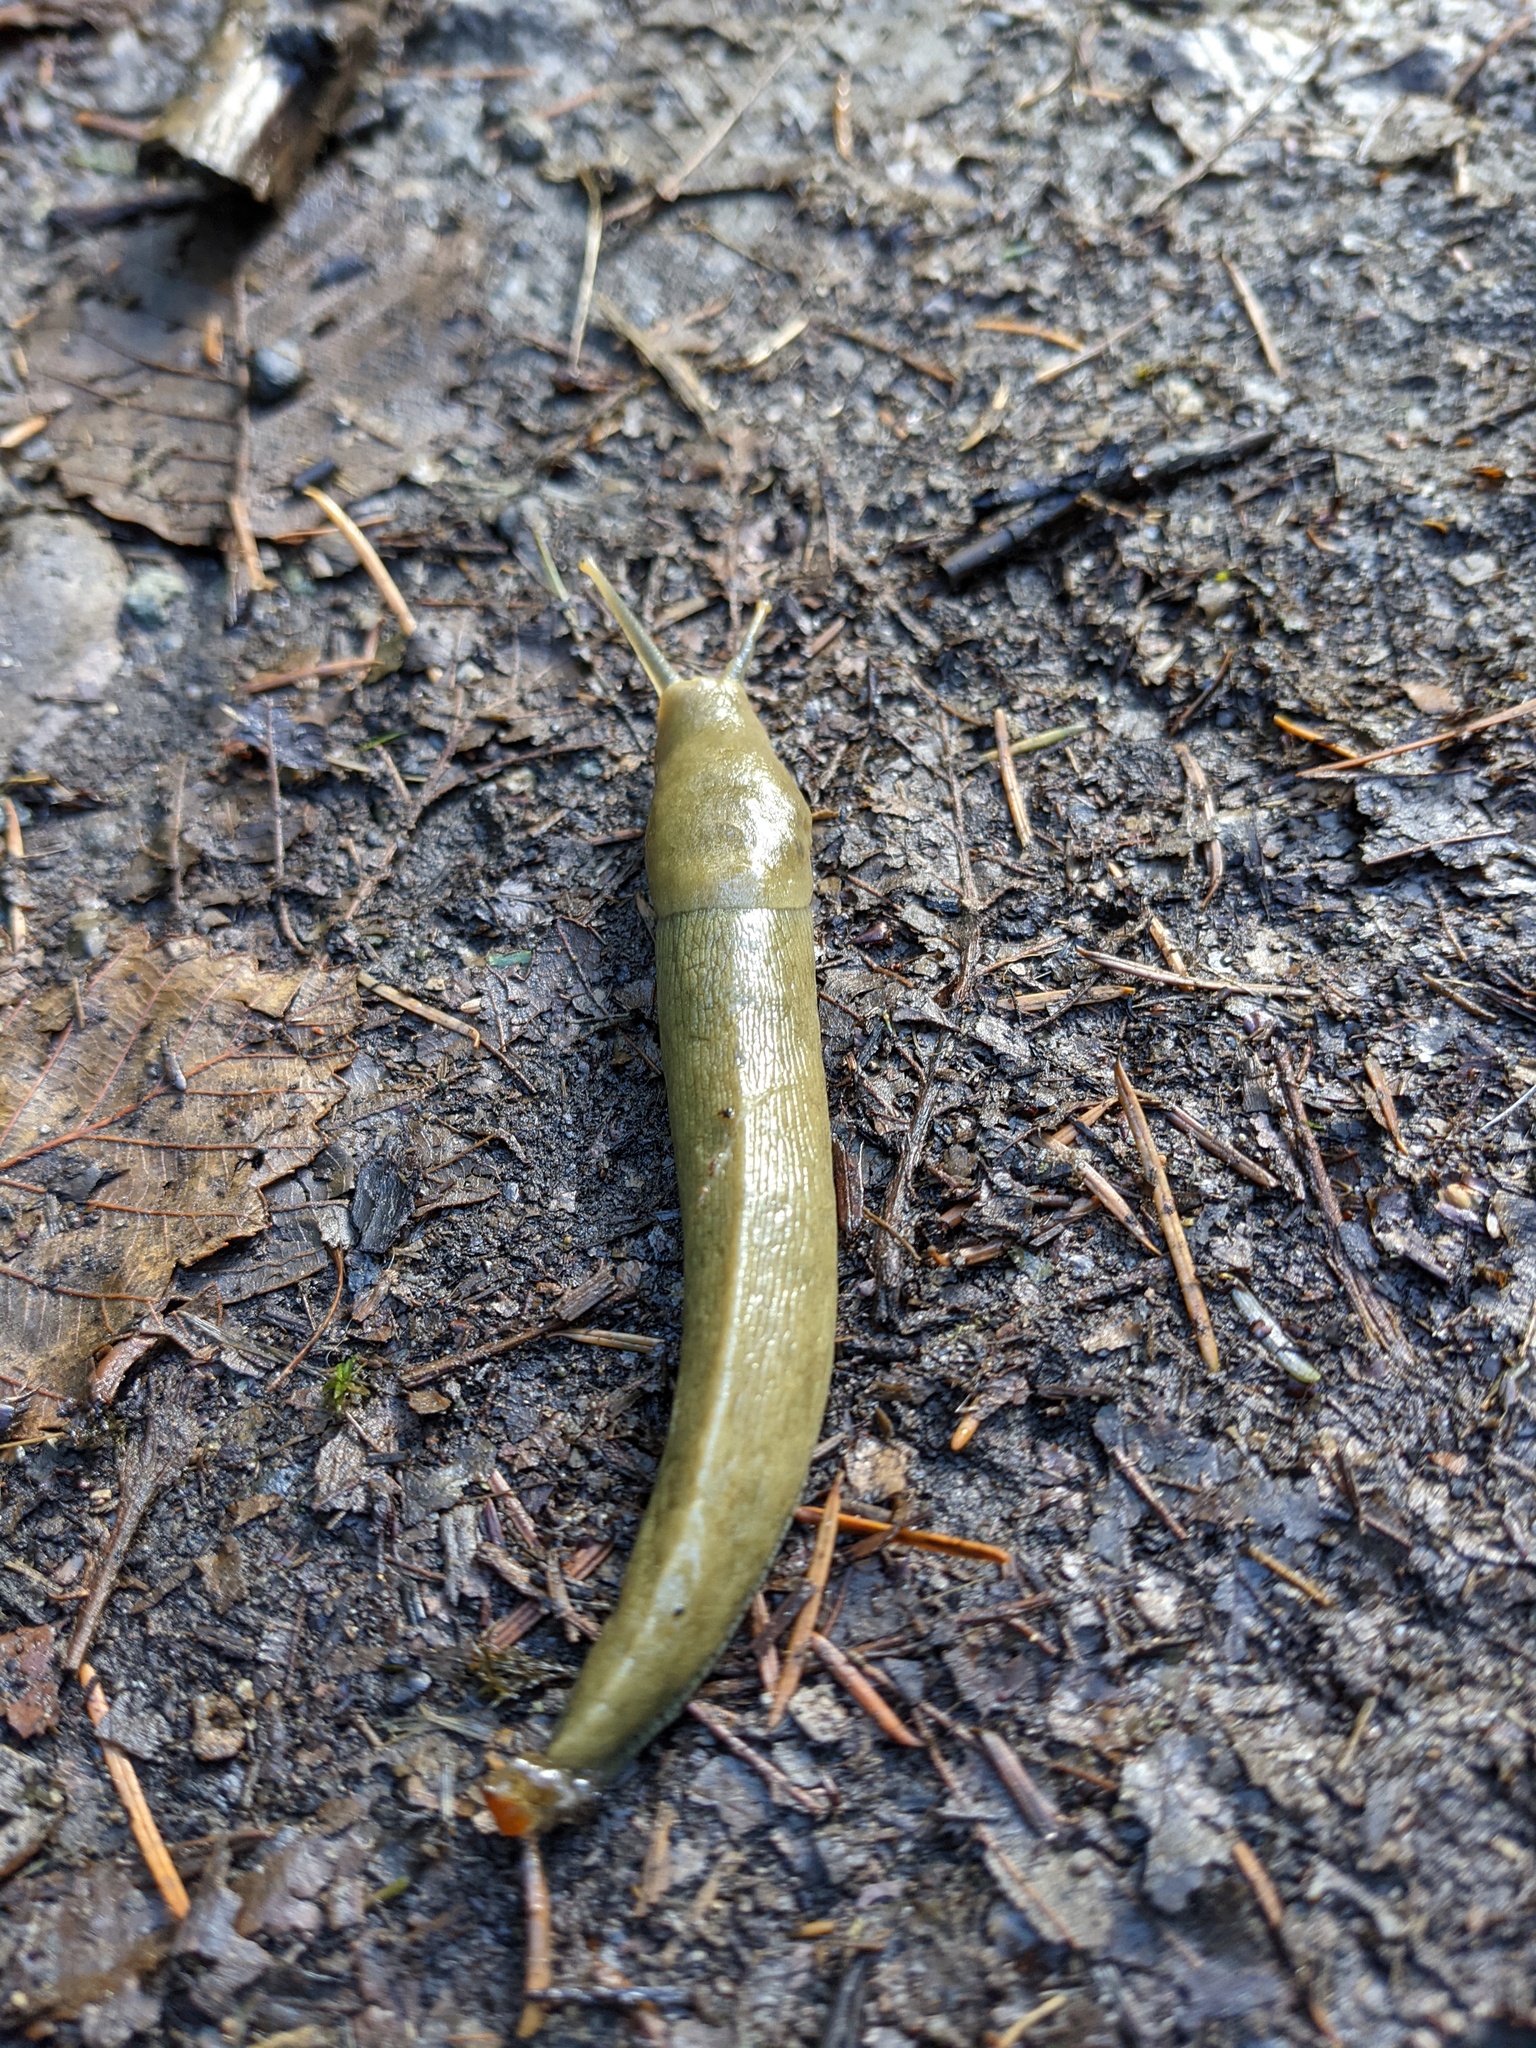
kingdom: Animalia
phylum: Mollusca
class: Gastropoda
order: Stylommatophora
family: Ariolimacidae
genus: Ariolimax
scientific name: Ariolimax columbianus
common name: Pacific banana slug
